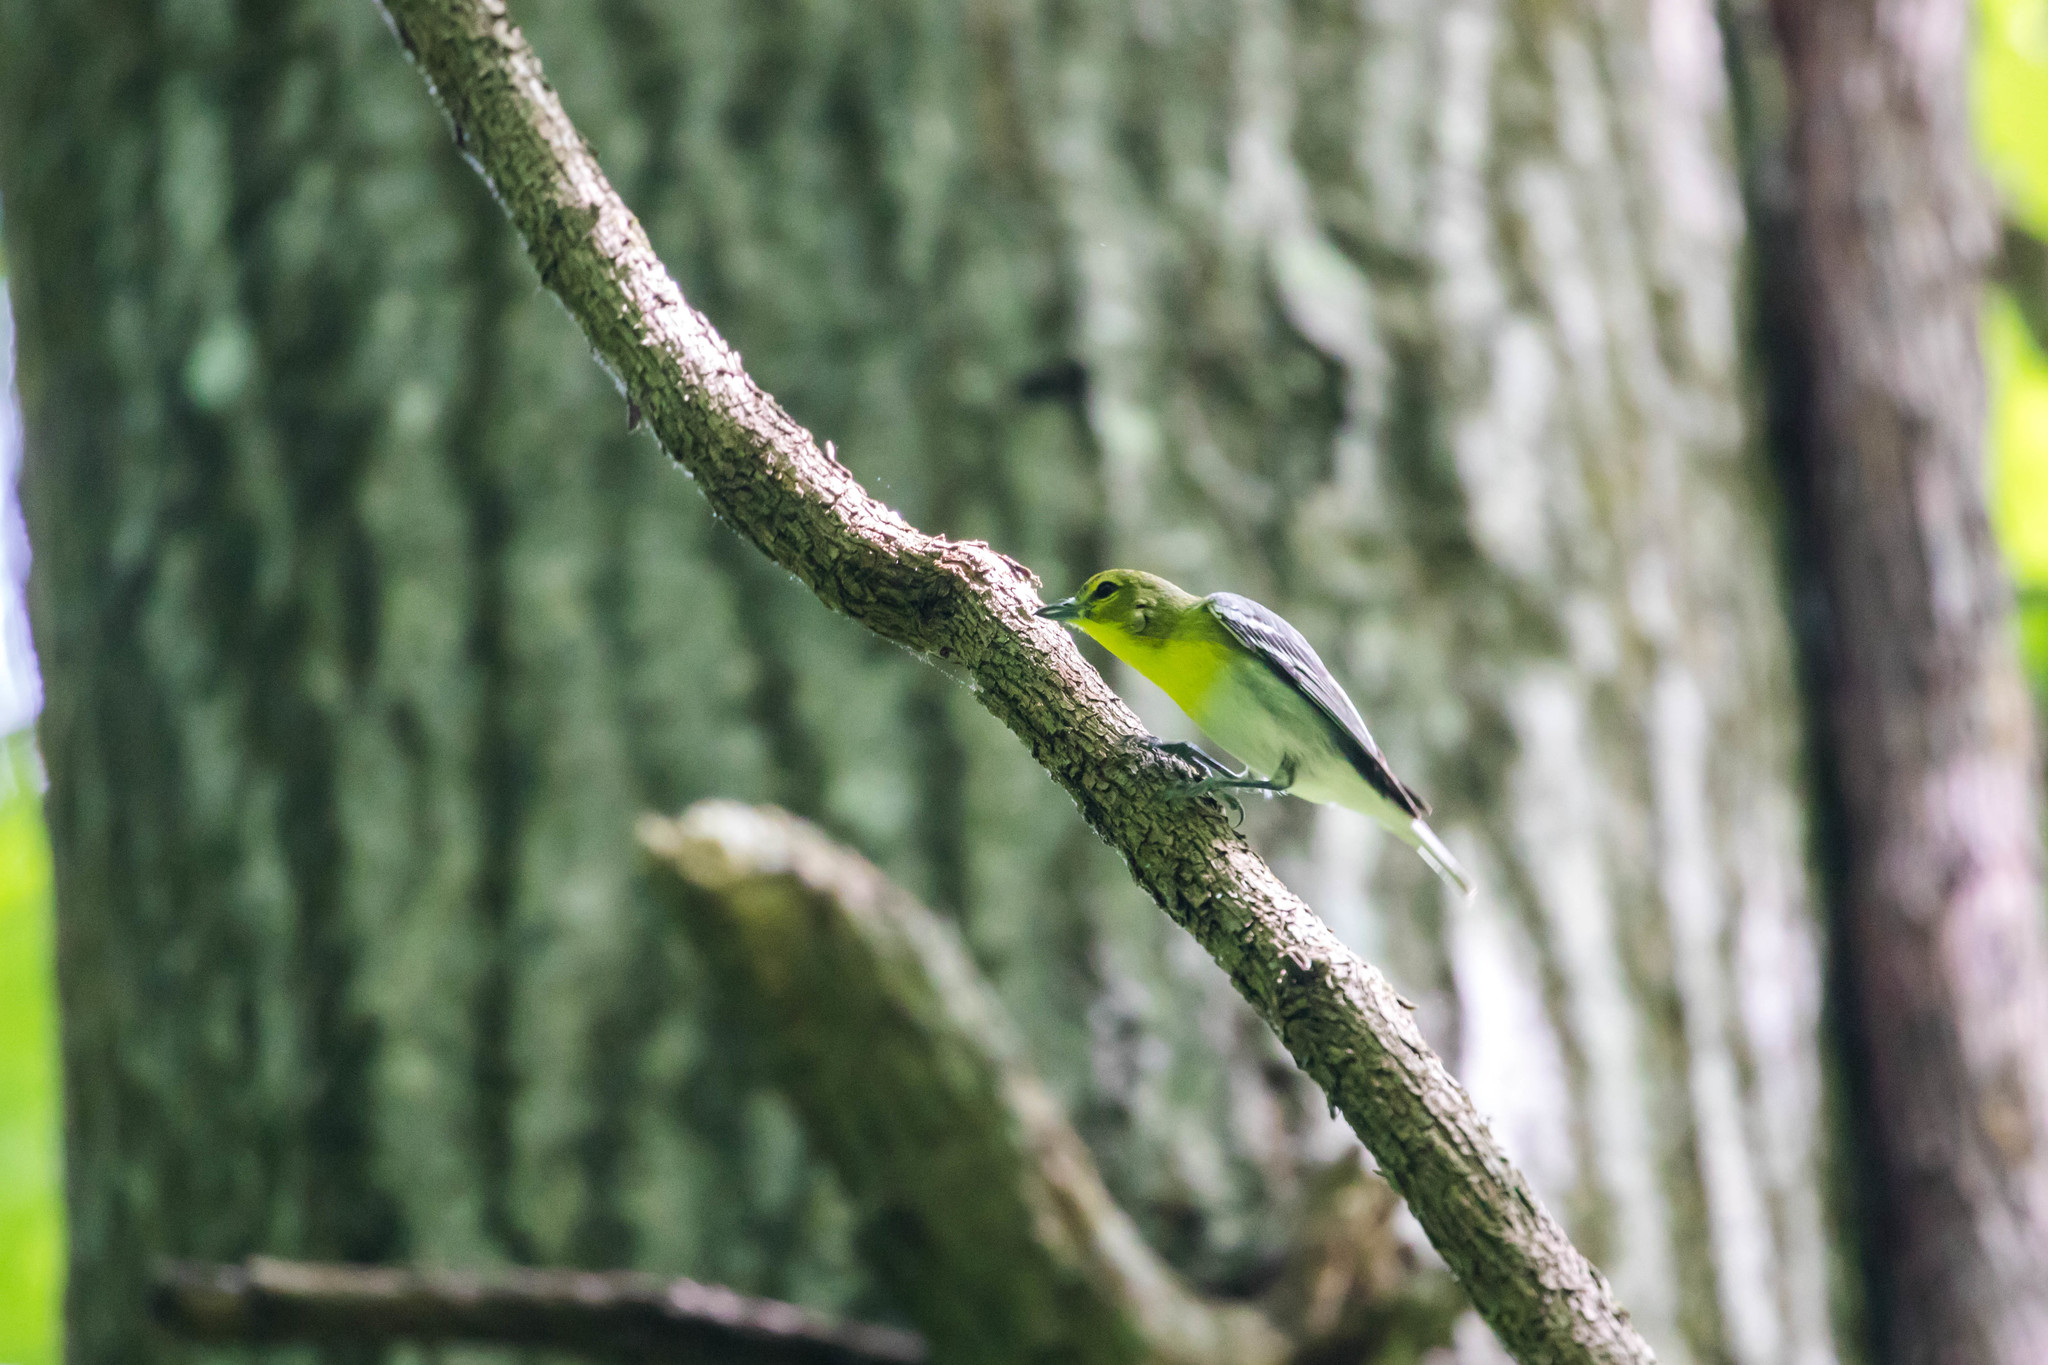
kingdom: Animalia
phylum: Chordata
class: Aves
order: Passeriformes
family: Vireonidae
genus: Vireo
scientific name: Vireo flavifrons
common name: Yellow-throated vireo
